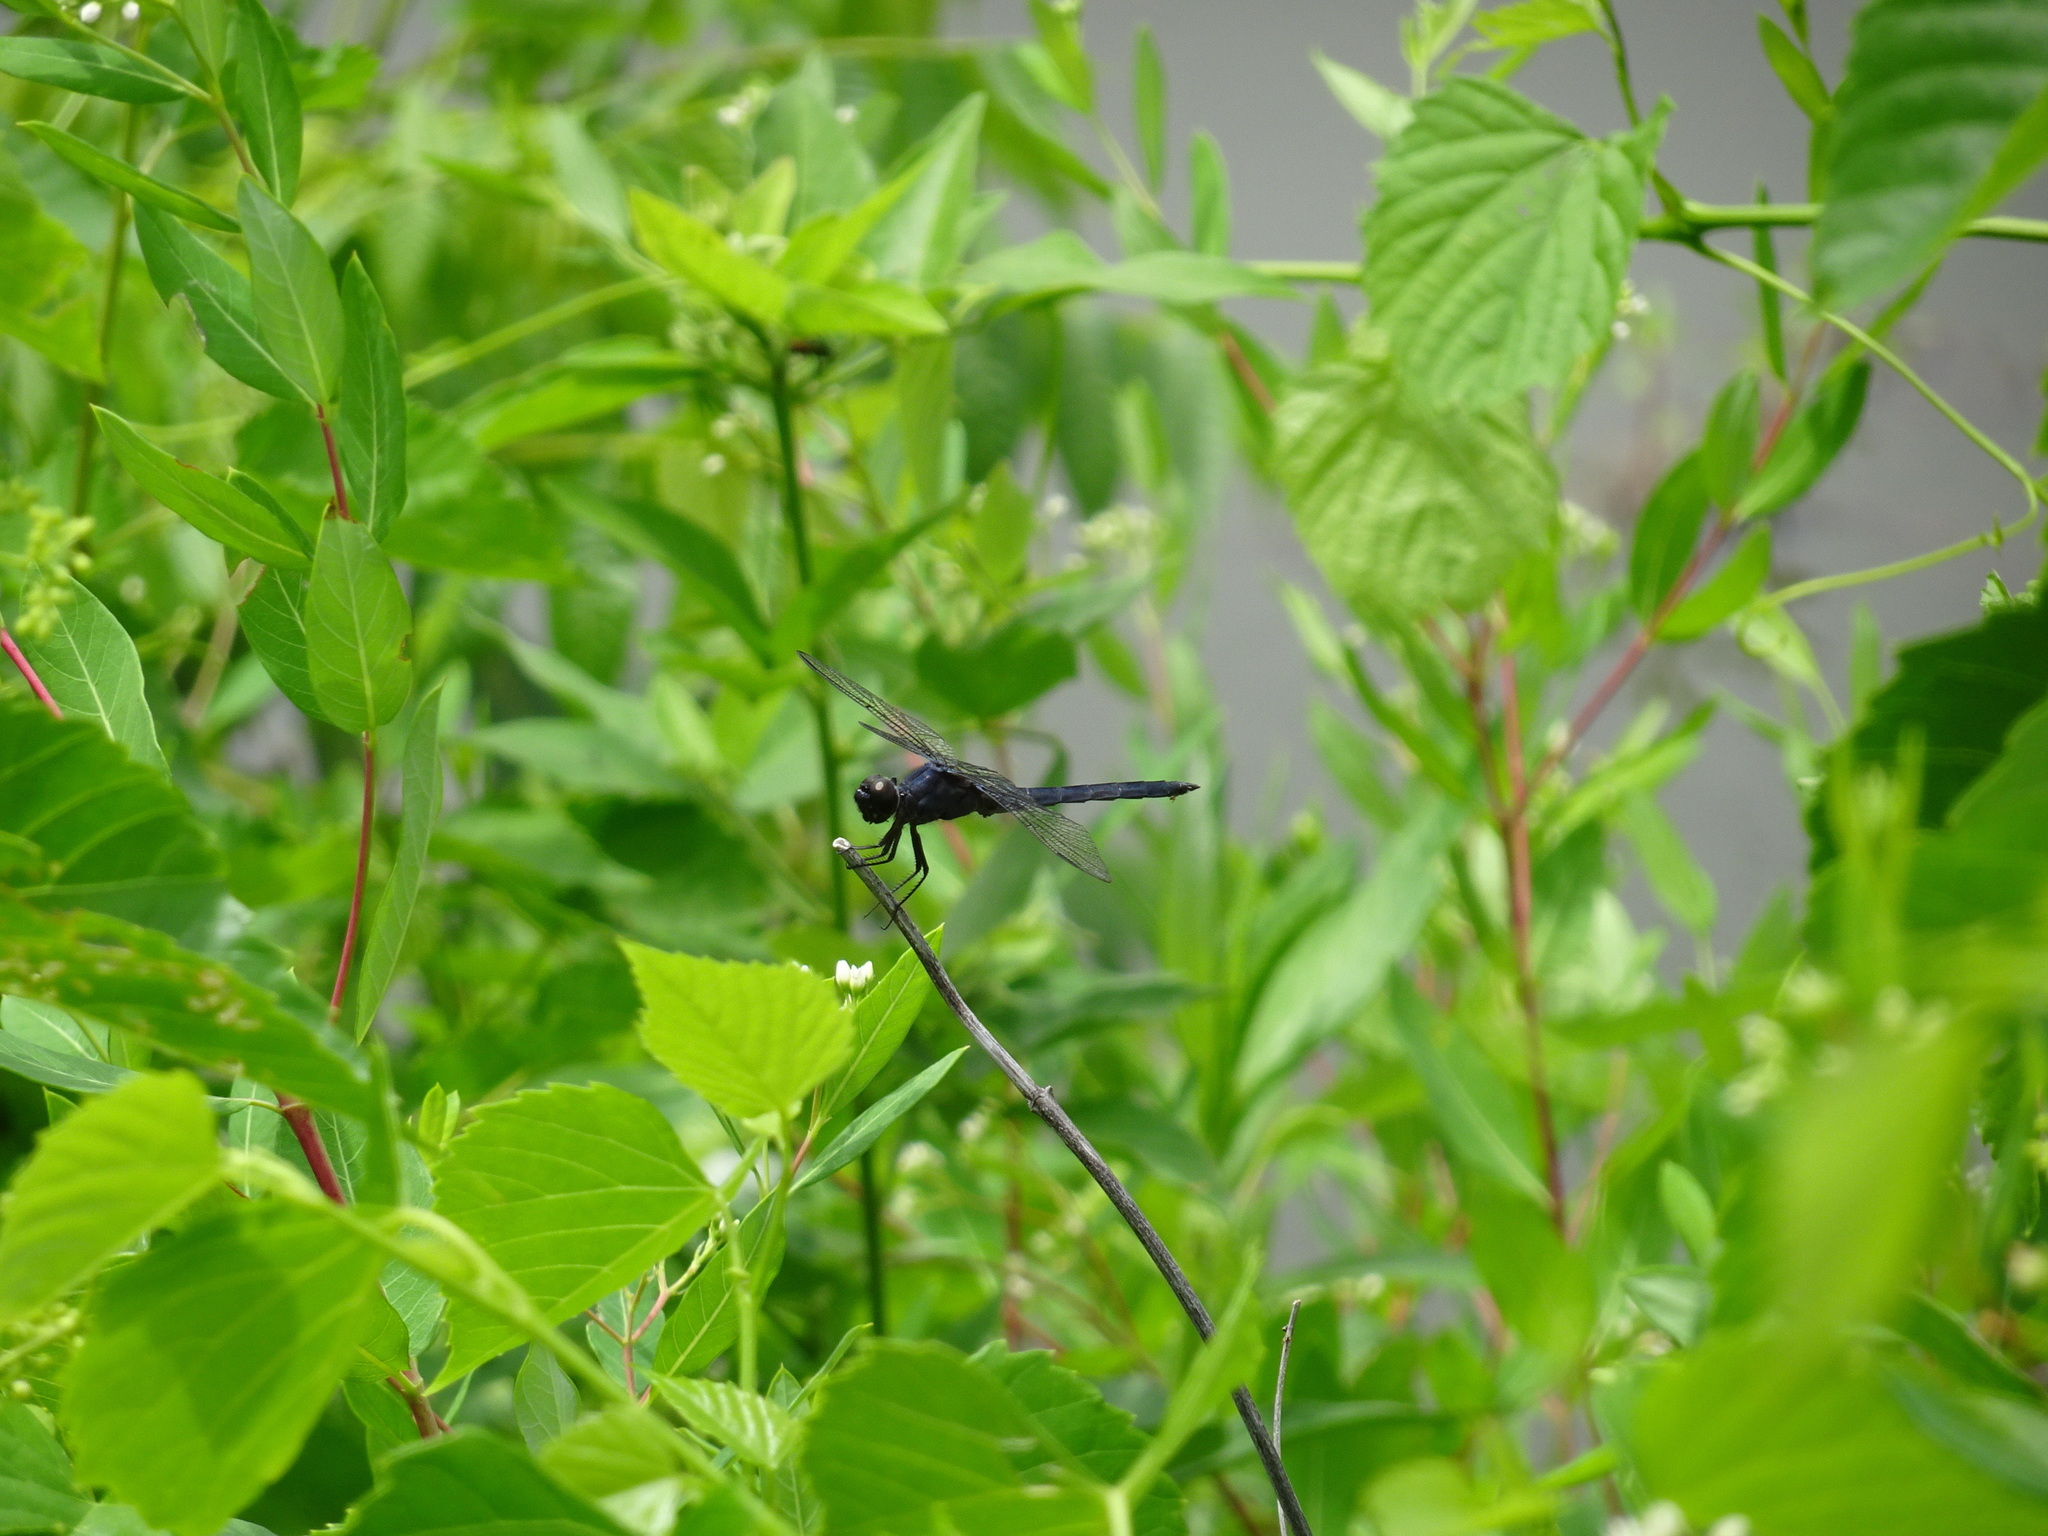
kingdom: Animalia
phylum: Arthropoda
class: Insecta
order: Odonata
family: Libellulidae
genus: Libellula
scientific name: Libellula incesta
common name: Slaty skimmer
